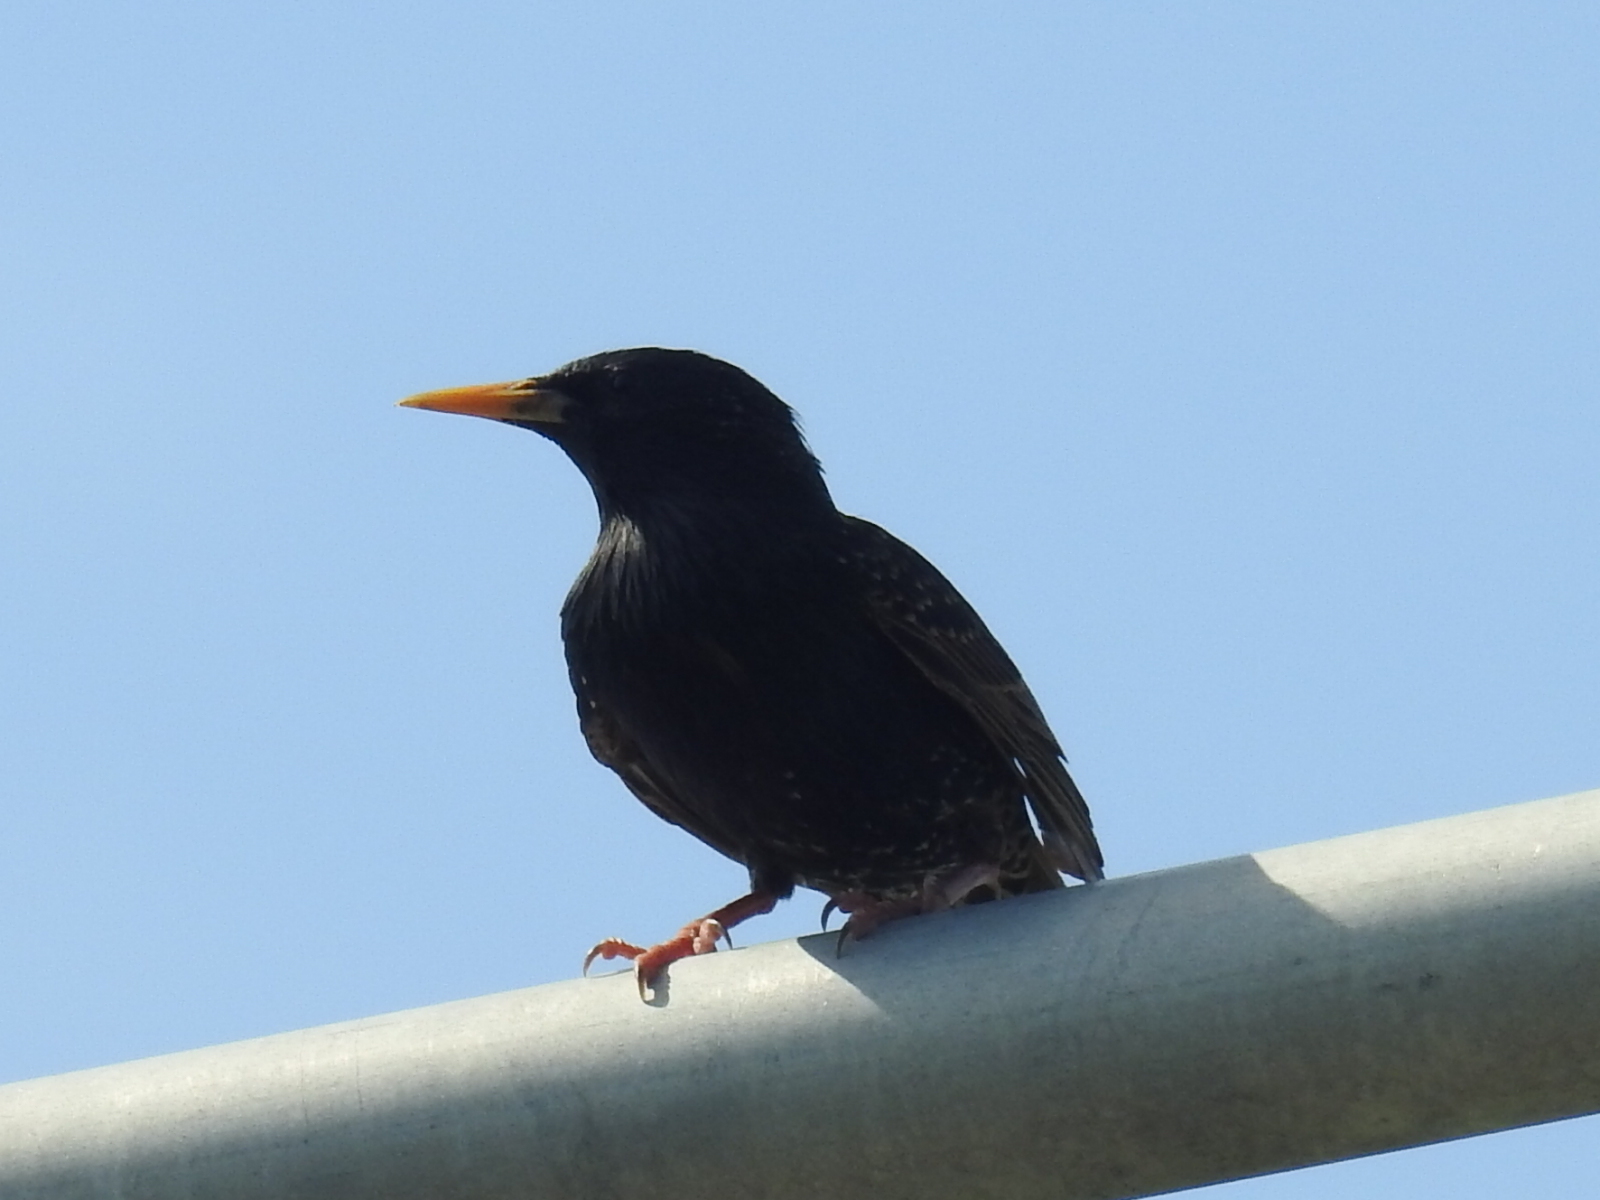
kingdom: Animalia
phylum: Chordata
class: Aves
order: Passeriformes
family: Sturnidae
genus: Sturnus
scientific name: Sturnus vulgaris
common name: Common starling
